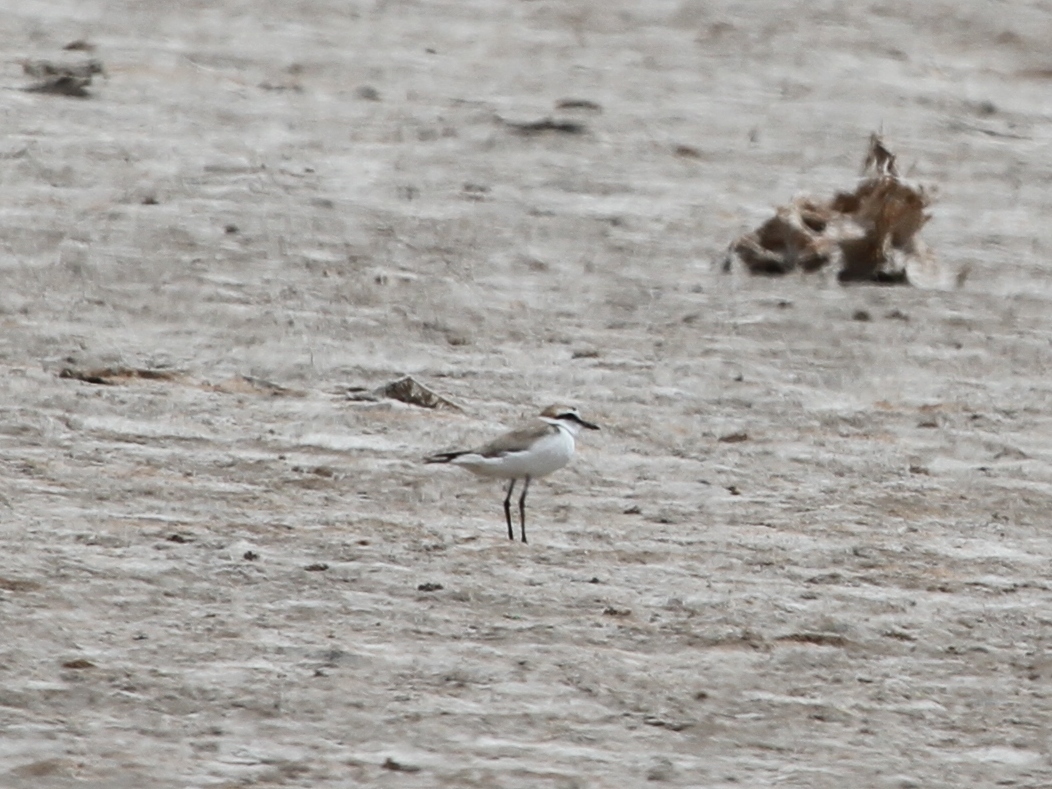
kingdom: Animalia
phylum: Chordata
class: Aves
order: Charadriiformes
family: Charadriidae
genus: Charadrius
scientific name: Charadrius alexandrinus
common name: Kentish plover
